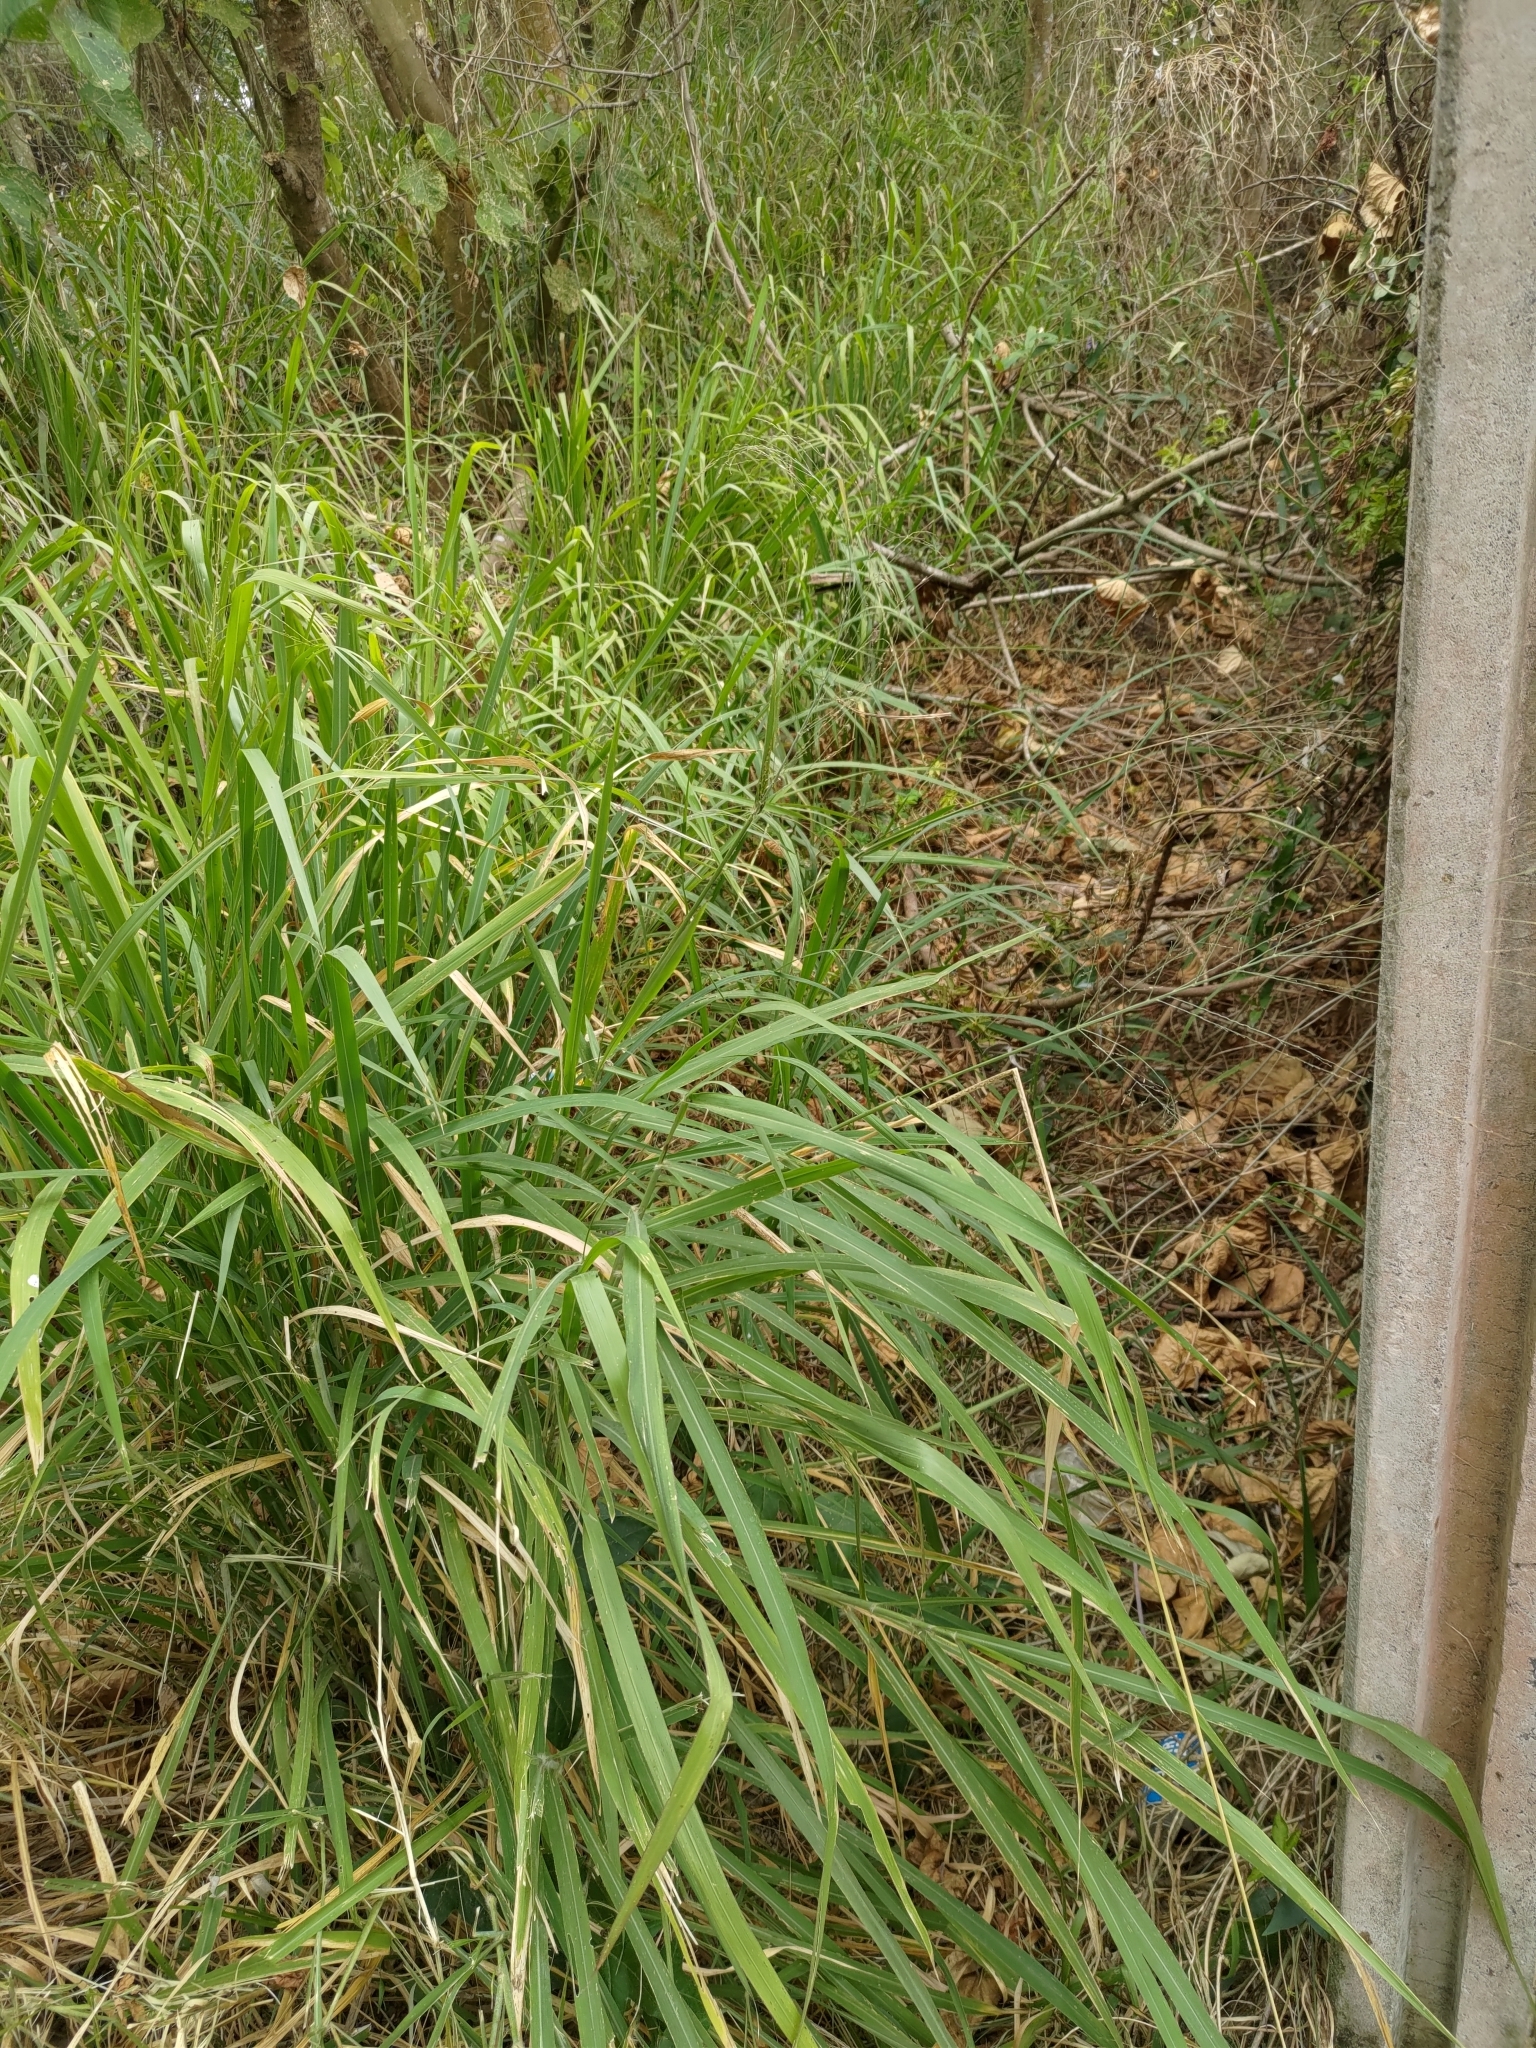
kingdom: Plantae
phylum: Tracheophyta
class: Liliopsida
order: Poales
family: Poaceae
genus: Megathyrsus
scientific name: Megathyrsus maximus
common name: Guineagrass
